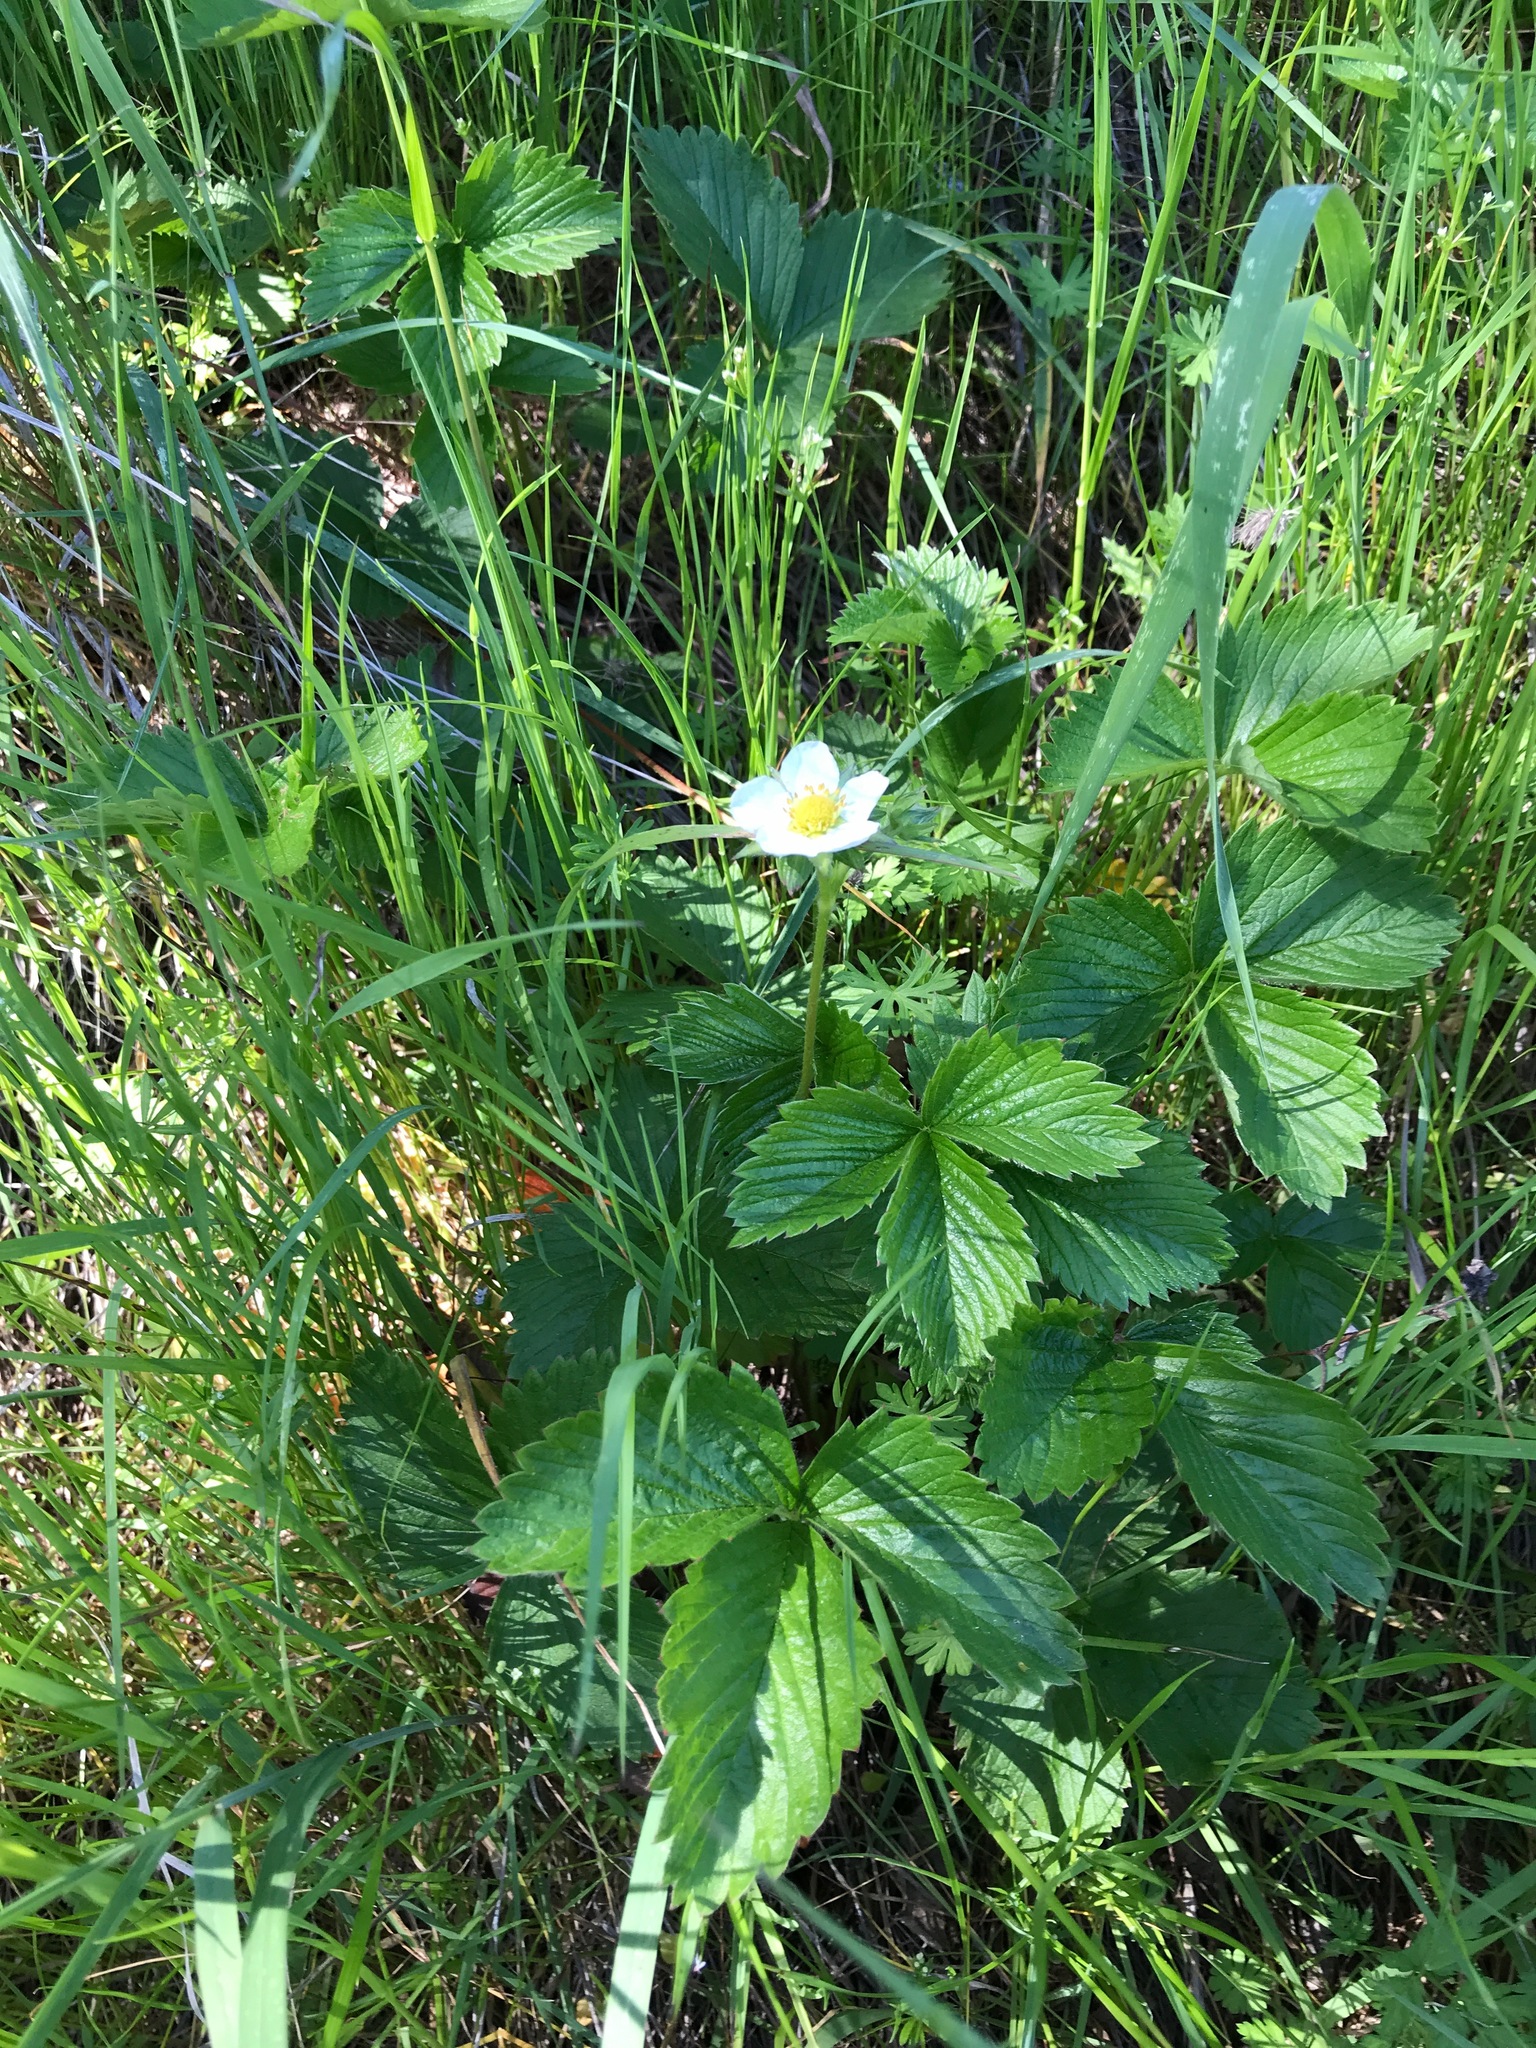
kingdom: Plantae
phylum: Tracheophyta
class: Magnoliopsida
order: Rosales
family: Rosaceae
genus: Fragaria
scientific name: Fragaria vesca
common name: Wild strawberry
